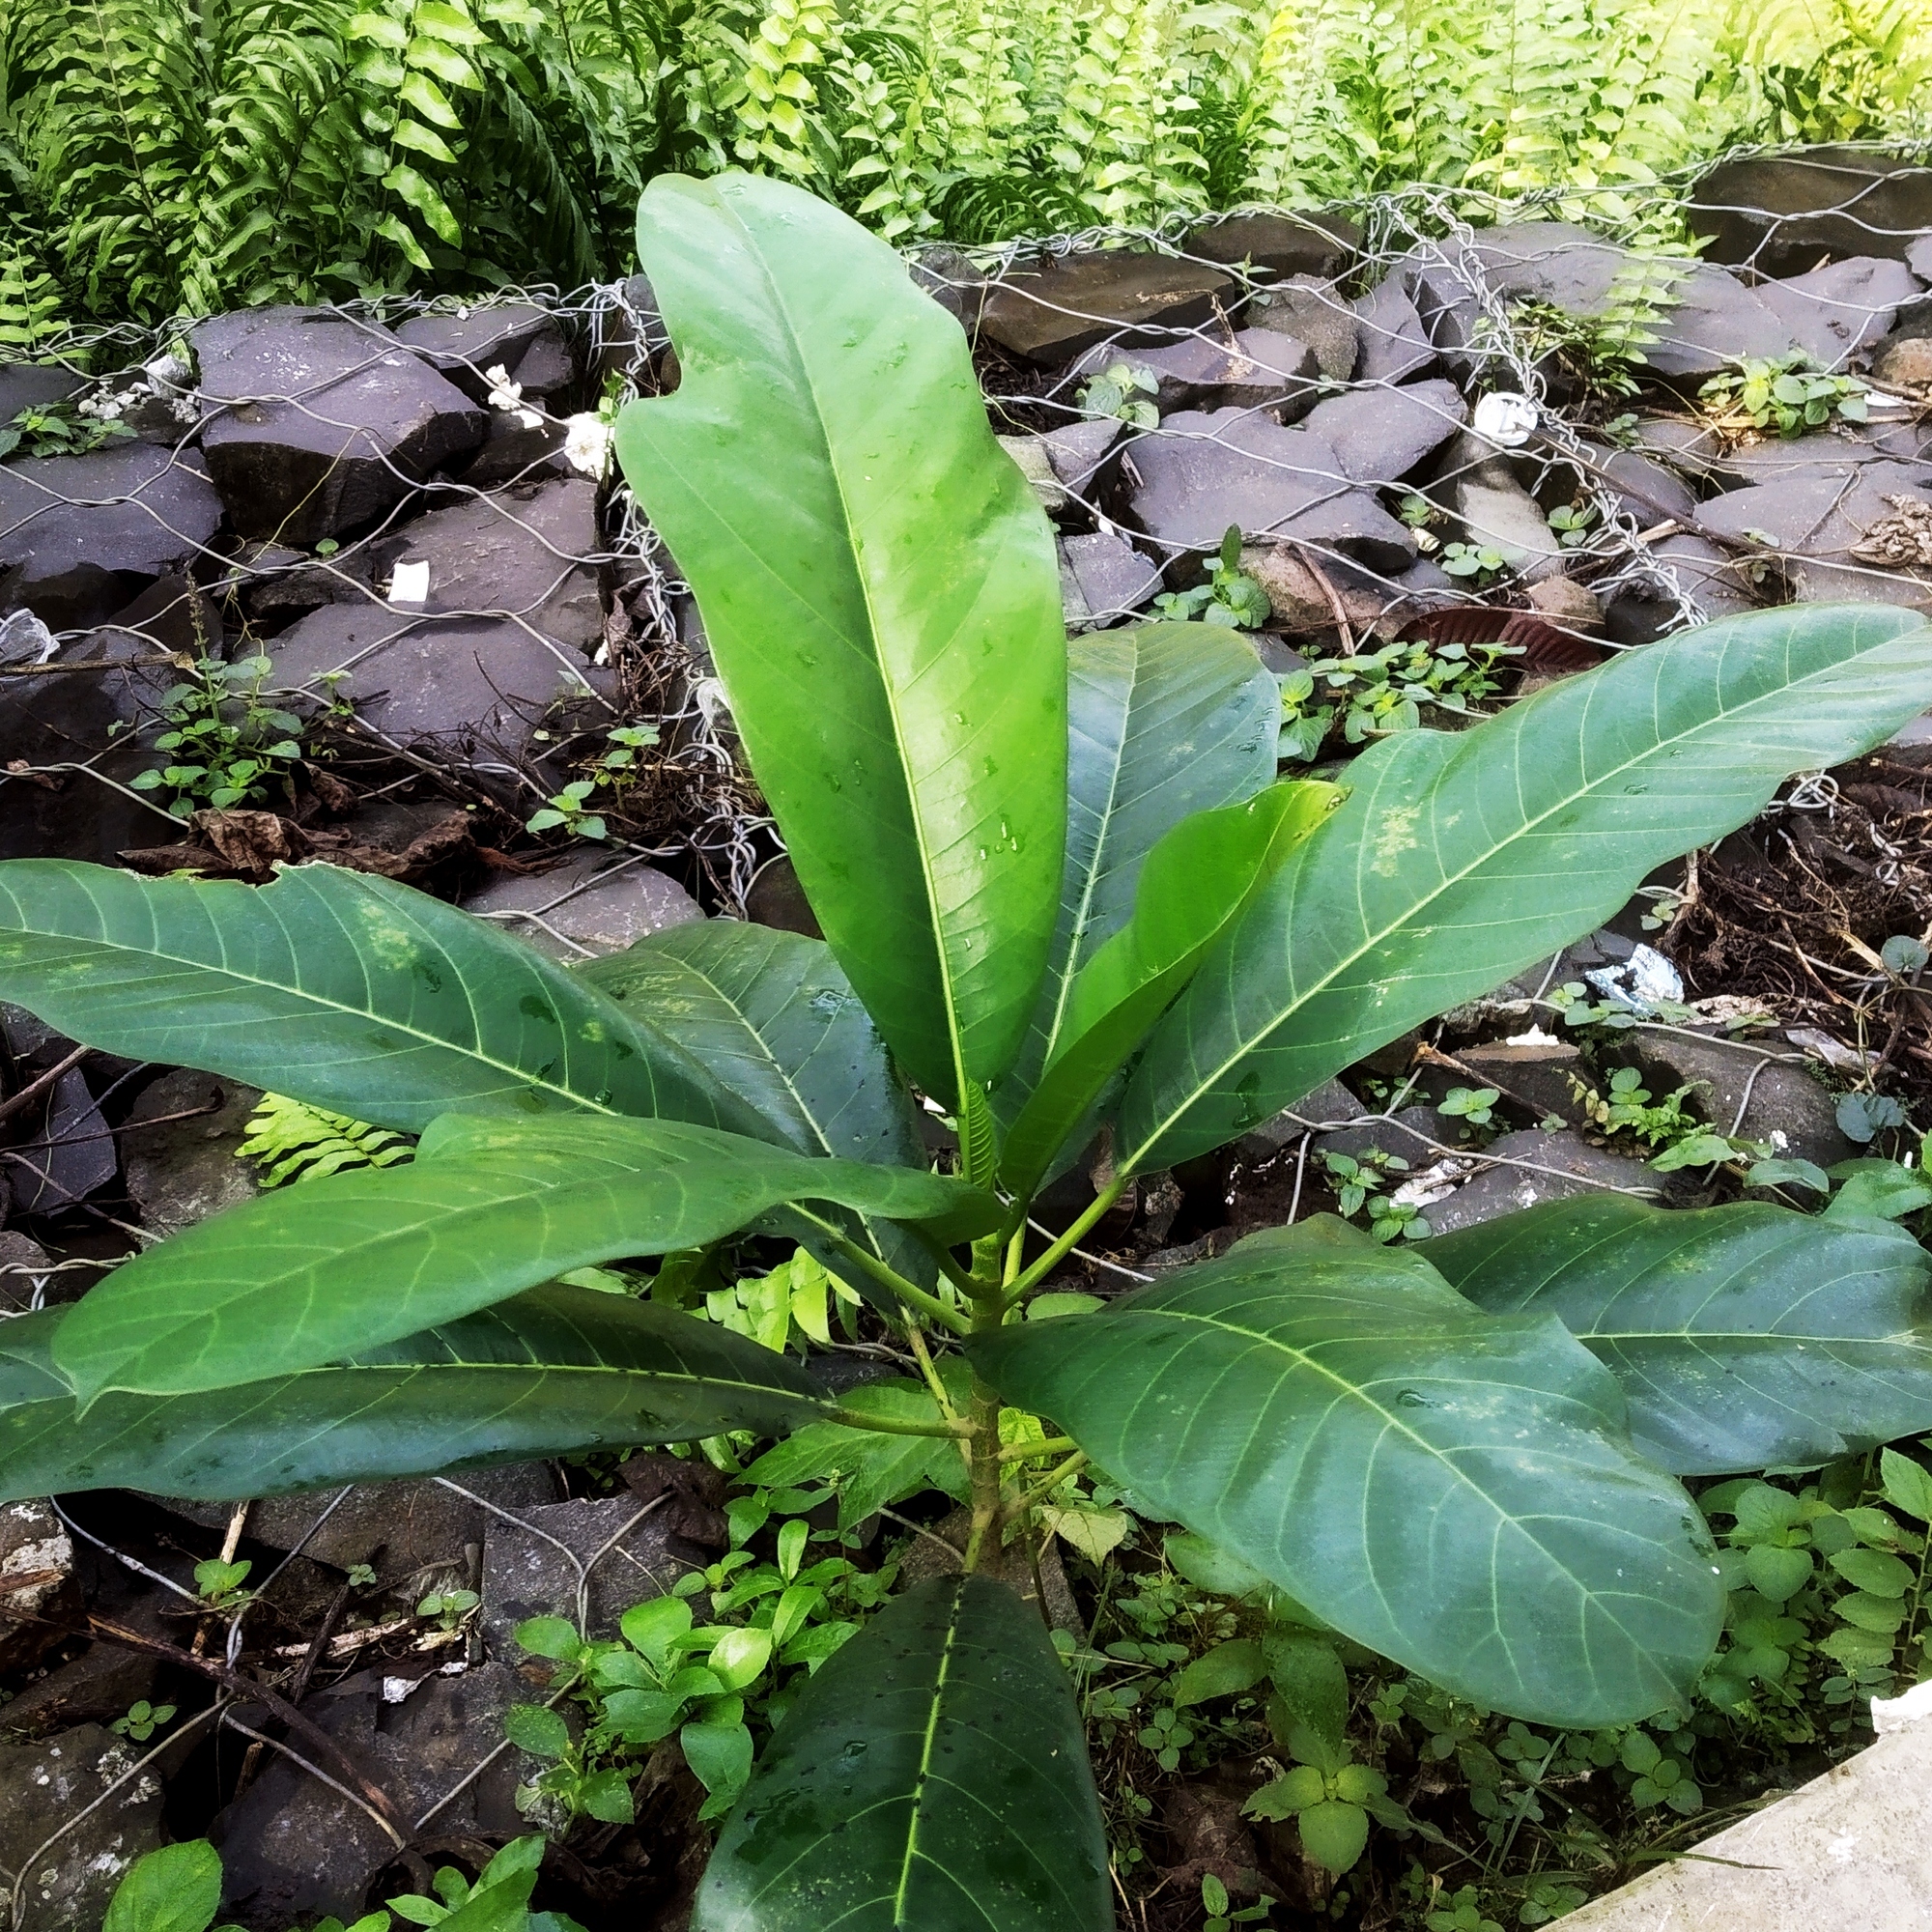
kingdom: Plantae
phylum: Tracheophyta
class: Magnoliopsida
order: Rosales
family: Moraceae
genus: Ficus
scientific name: Ficus callosa
